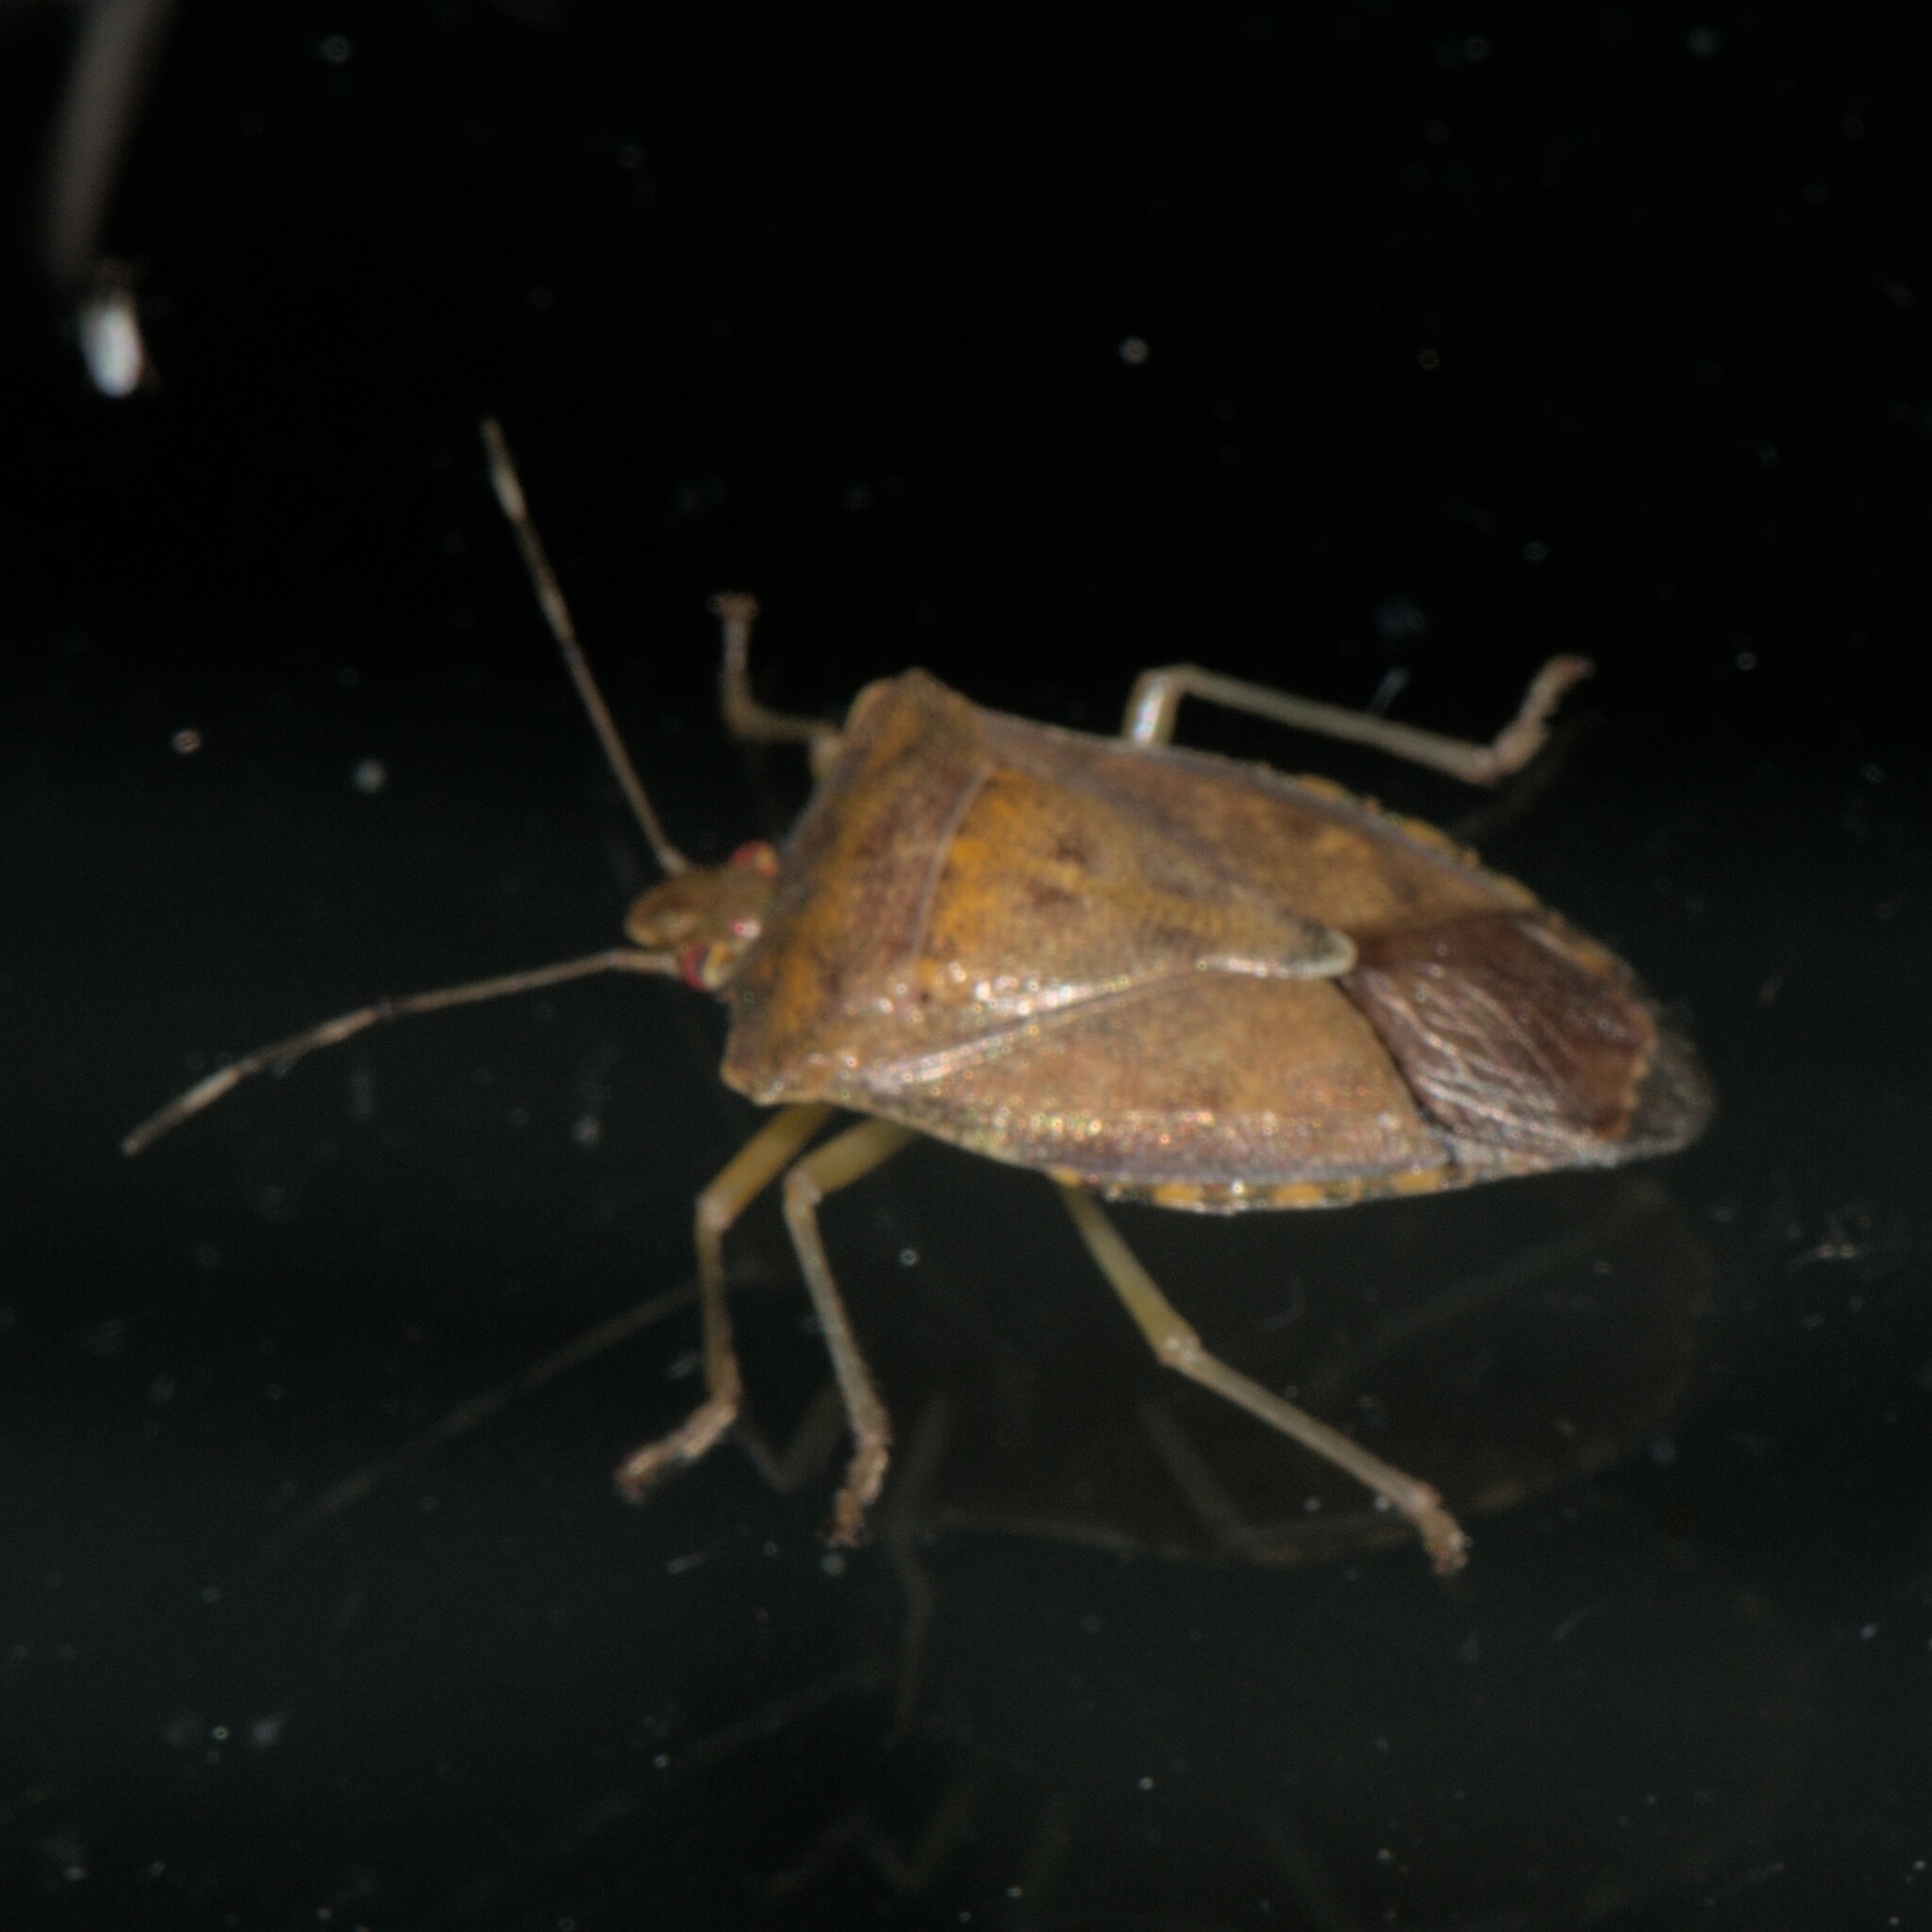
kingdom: Animalia
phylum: Arthropoda
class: Insecta
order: Hemiptera
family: Pentatomidae
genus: Pentatoma
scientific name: Pentatoma
